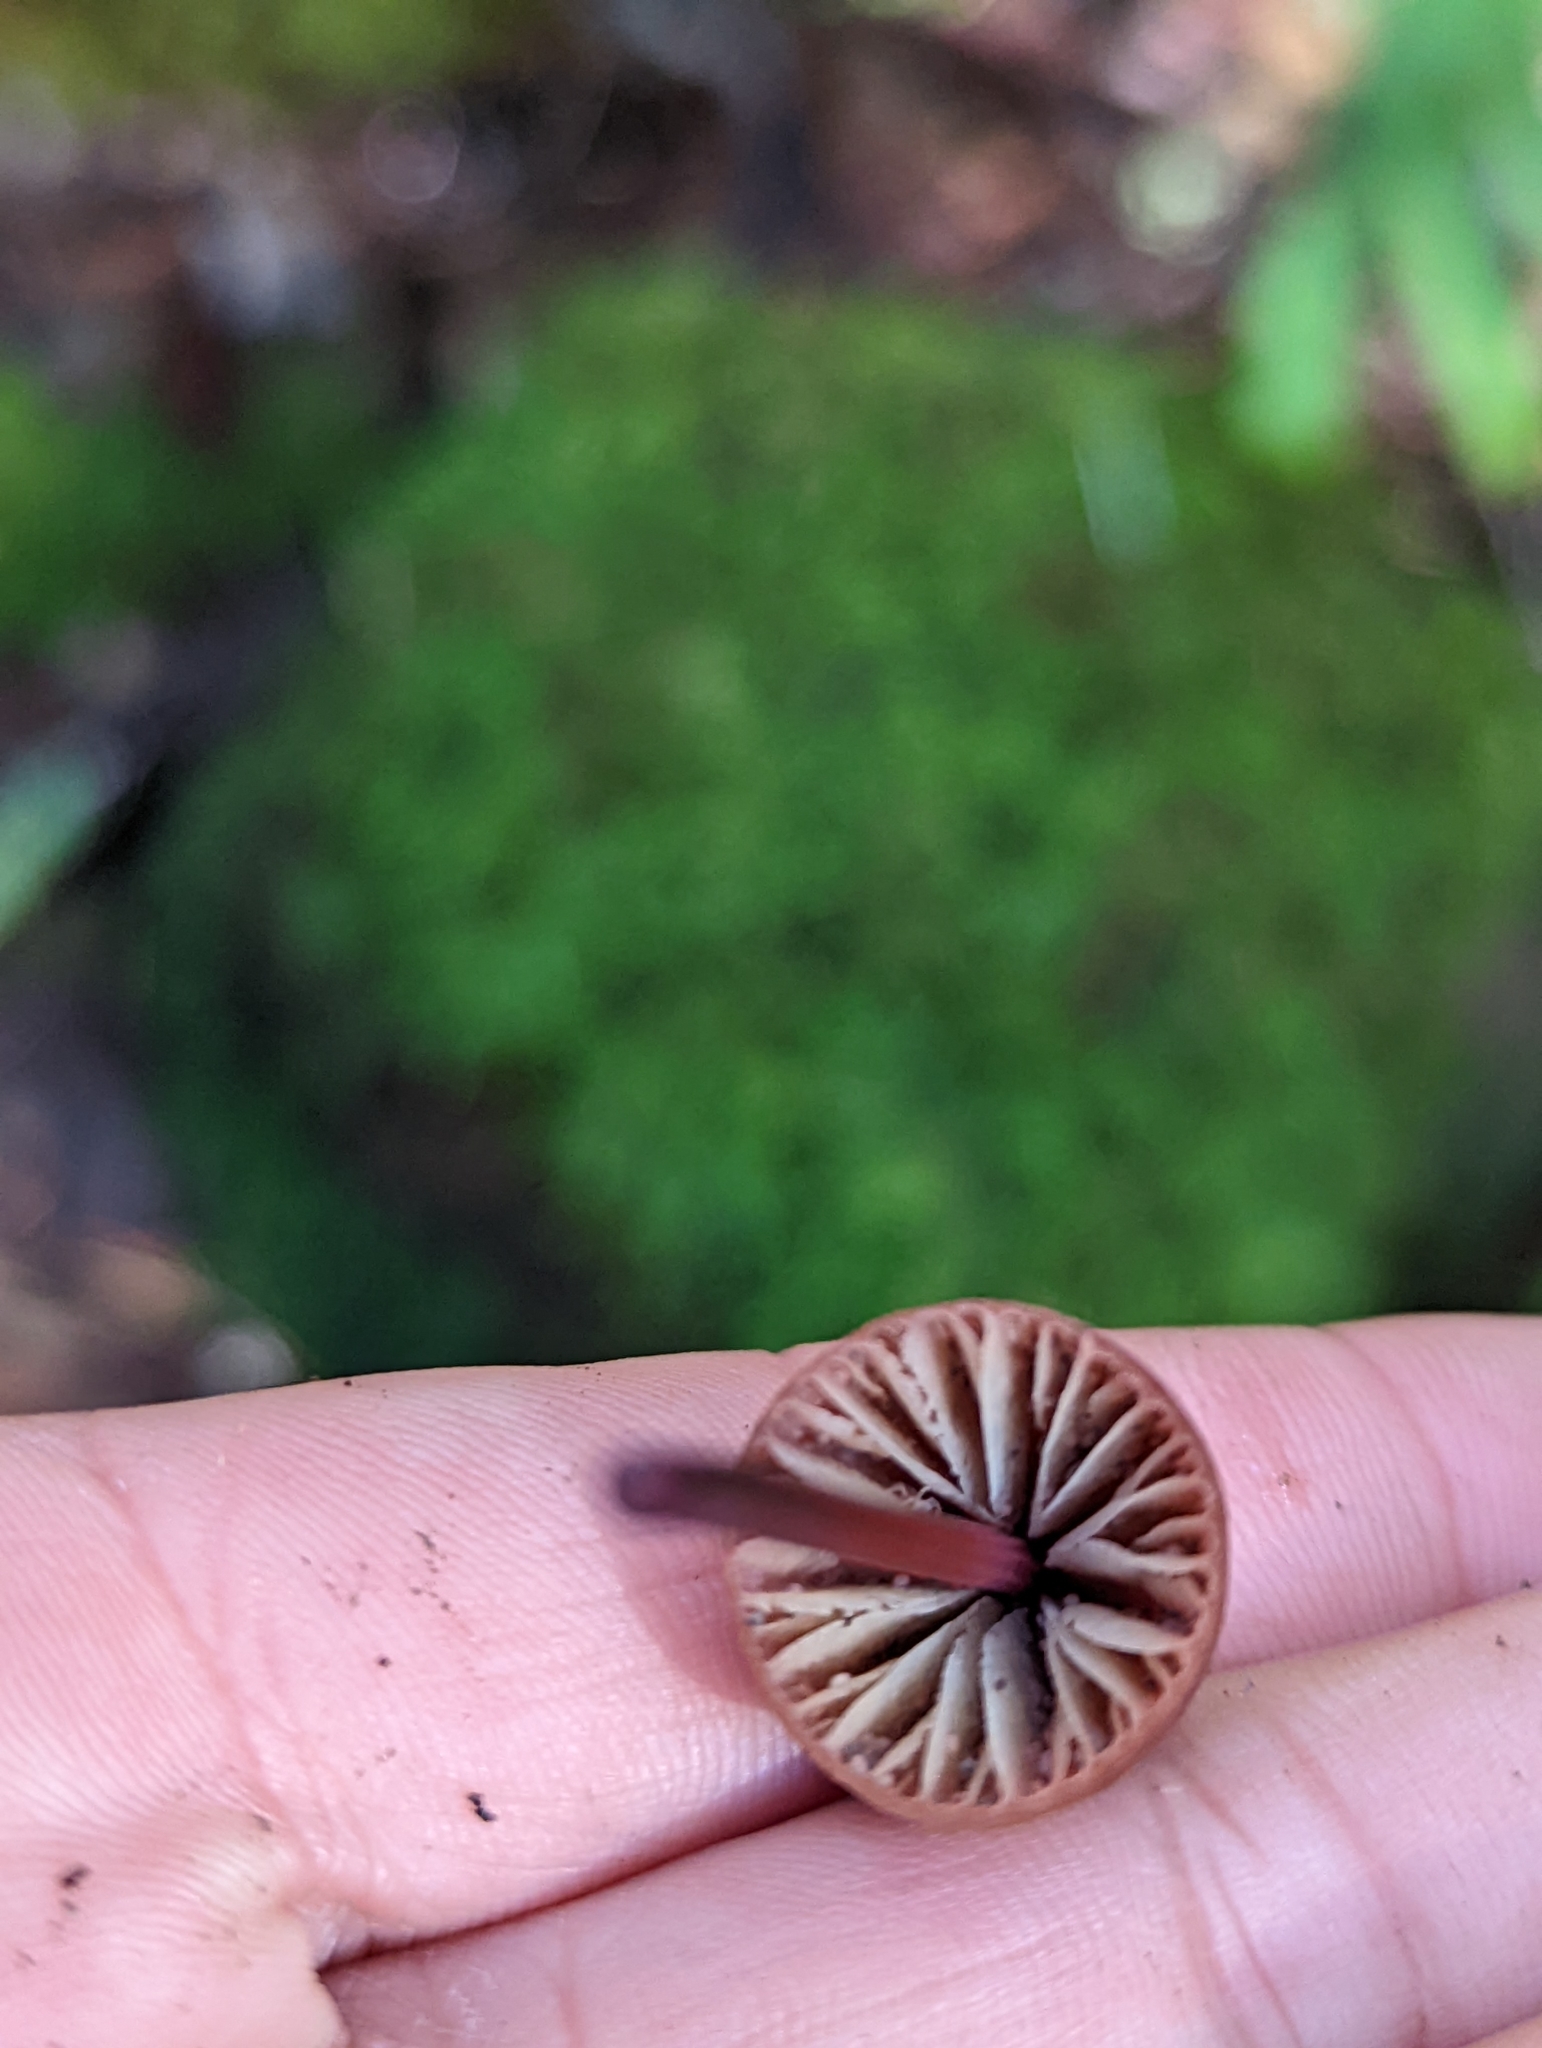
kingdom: Fungi
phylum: Basidiomycota
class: Agaricomycetes
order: Agaricales
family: Marasmiaceae
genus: Marasmius
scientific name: Marasmius plicatulus
